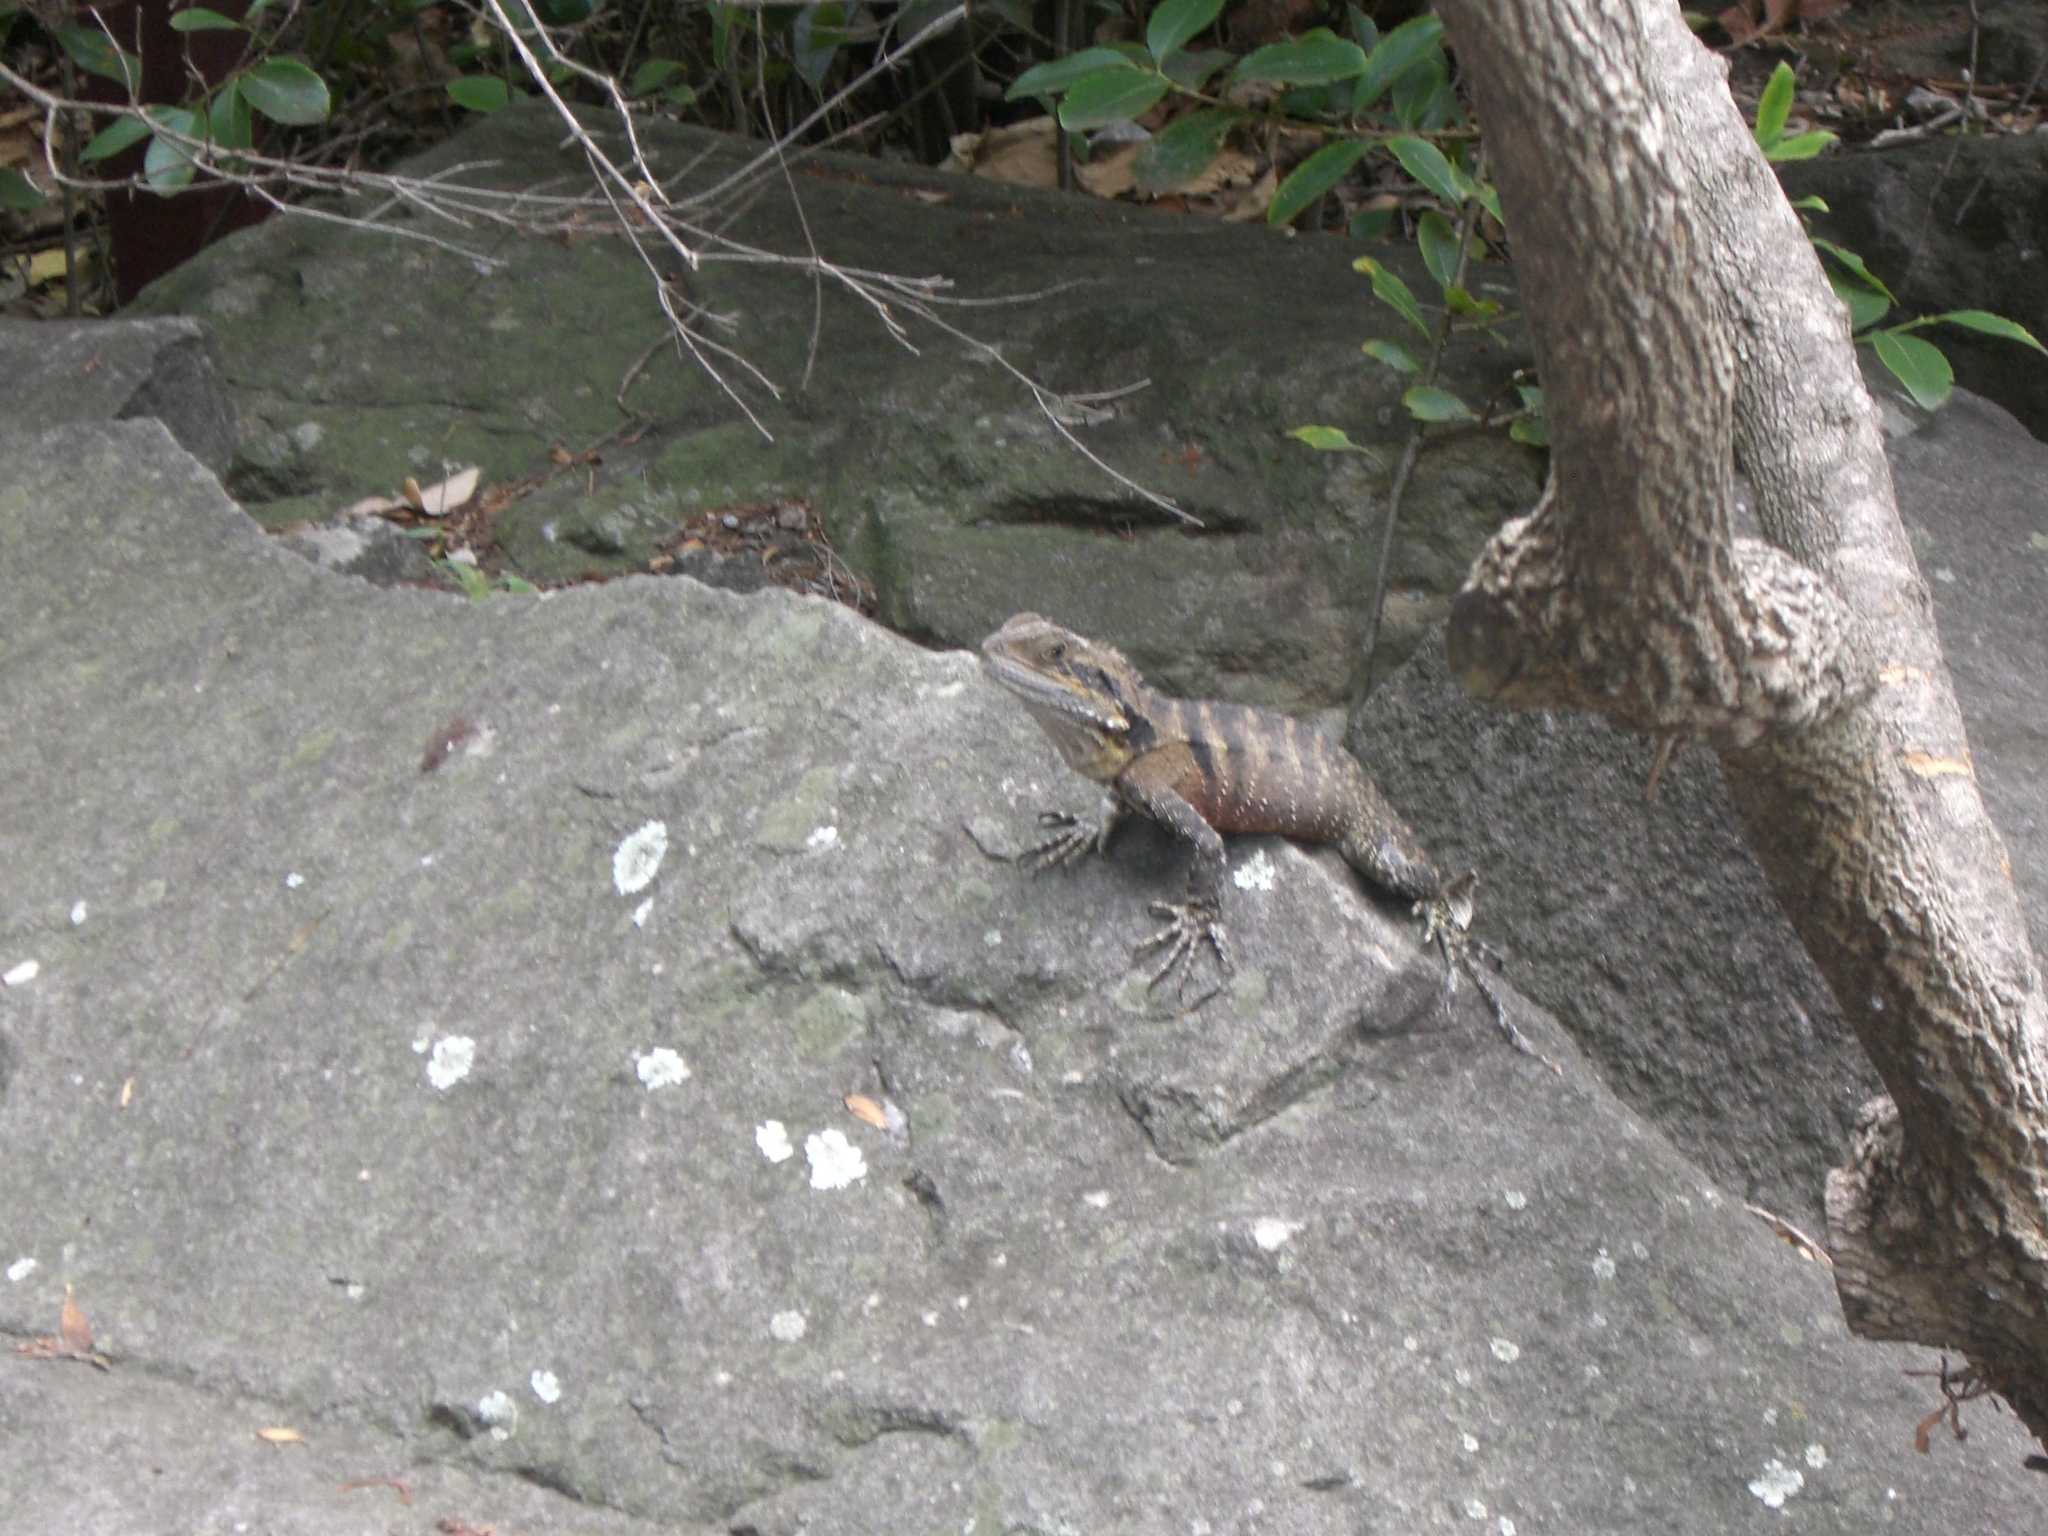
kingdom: Animalia
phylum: Chordata
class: Squamata
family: Agamidae
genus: Intellagama
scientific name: Intellagama lesueurii
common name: Eastern water dragon
